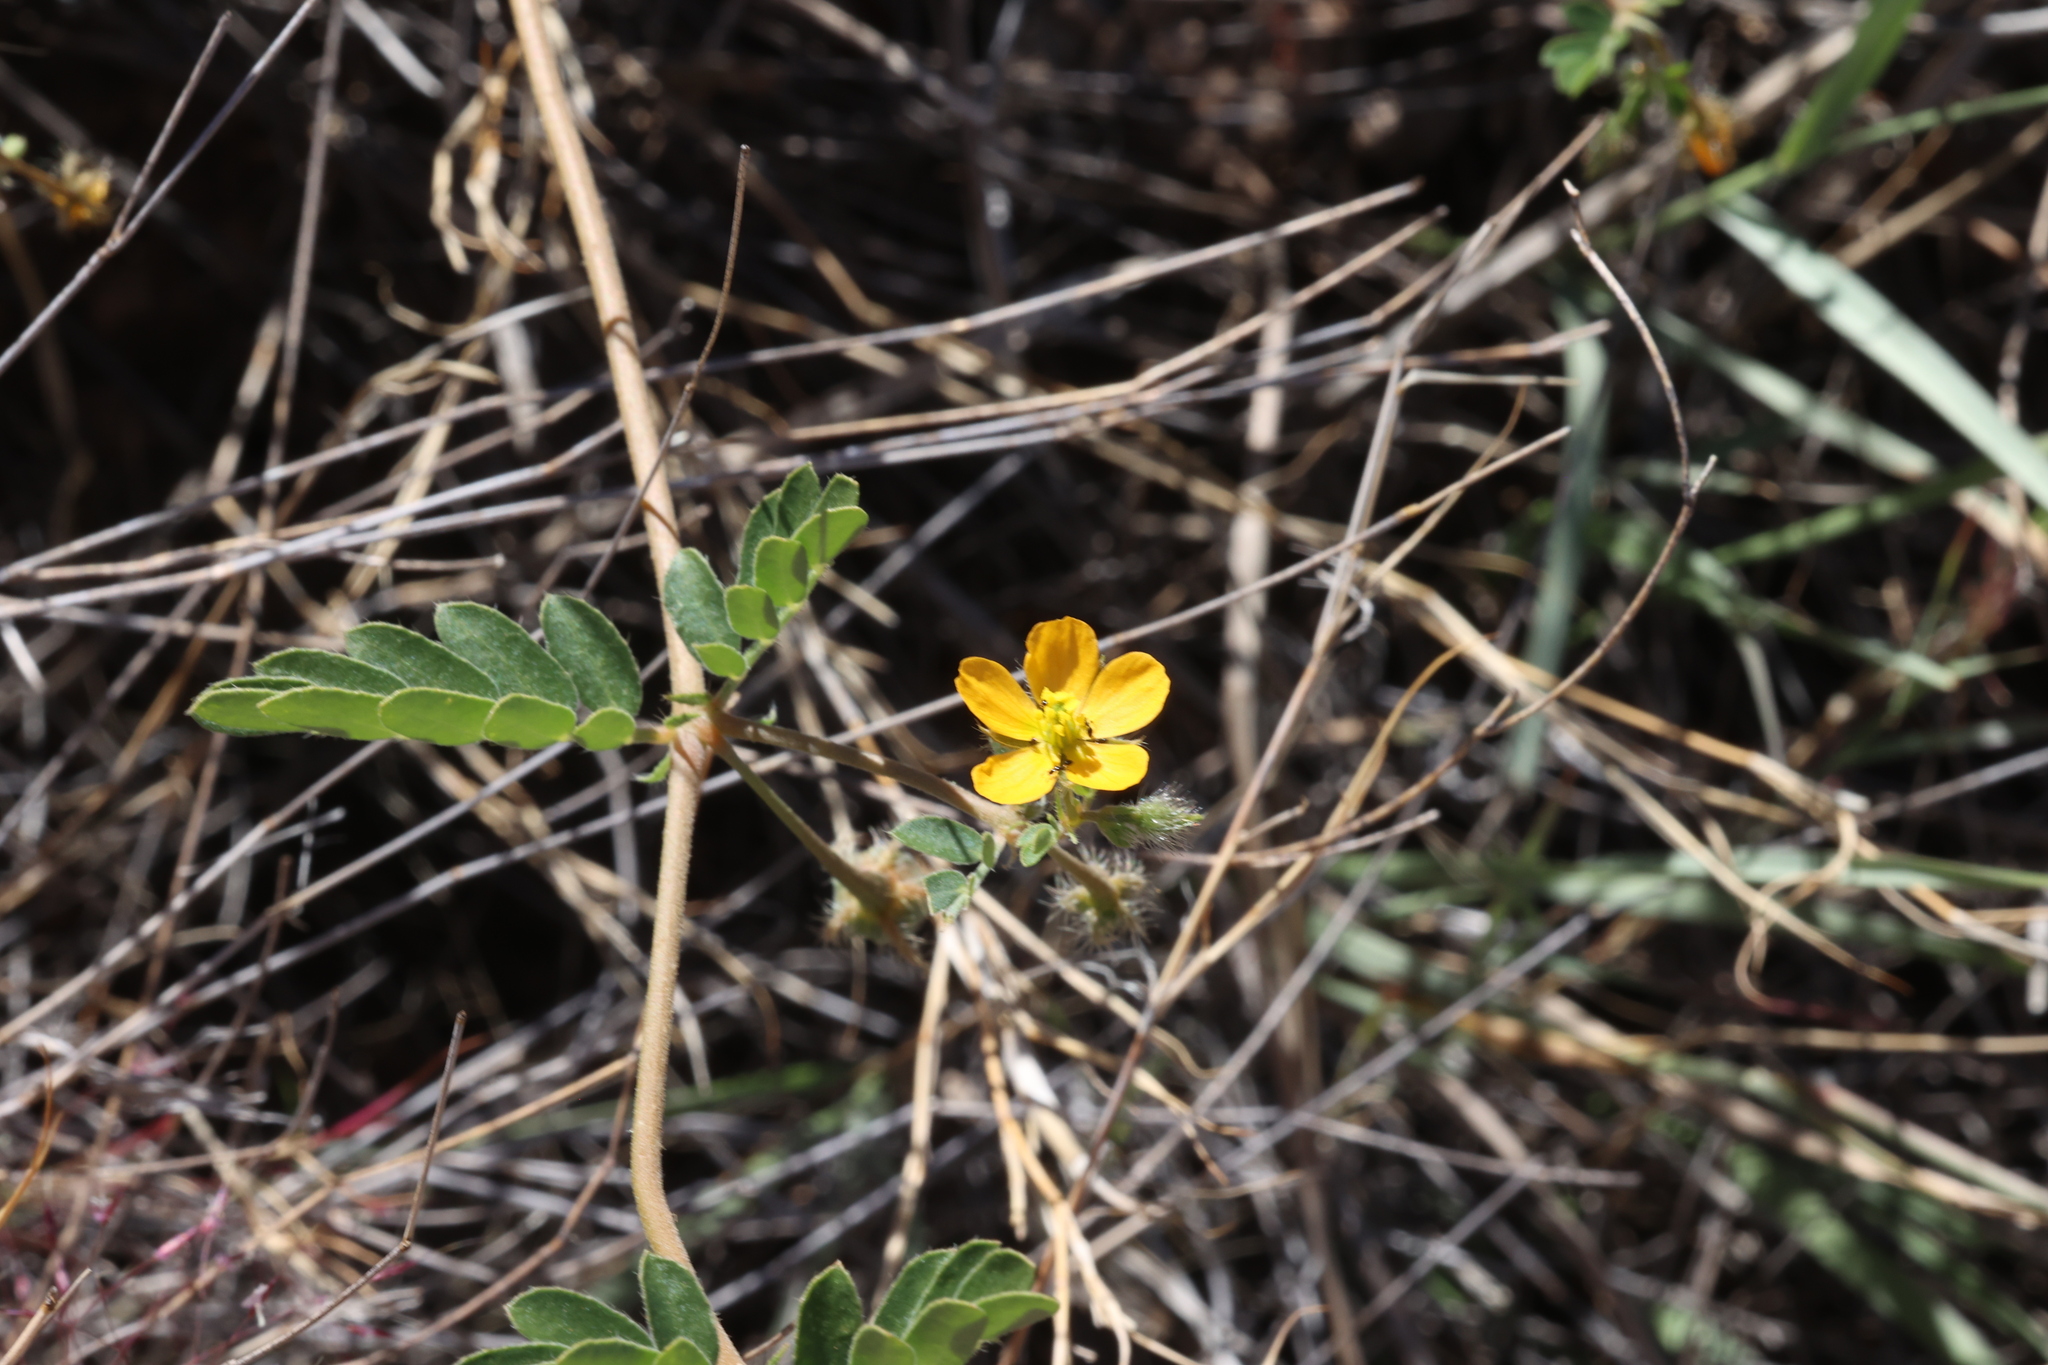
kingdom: Plantae
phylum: Tracheophyta
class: Magnoliopsida
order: Zygophyllales
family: Zygophyllaceae
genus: Kallstroemia
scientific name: Kallstroemia parviflora
